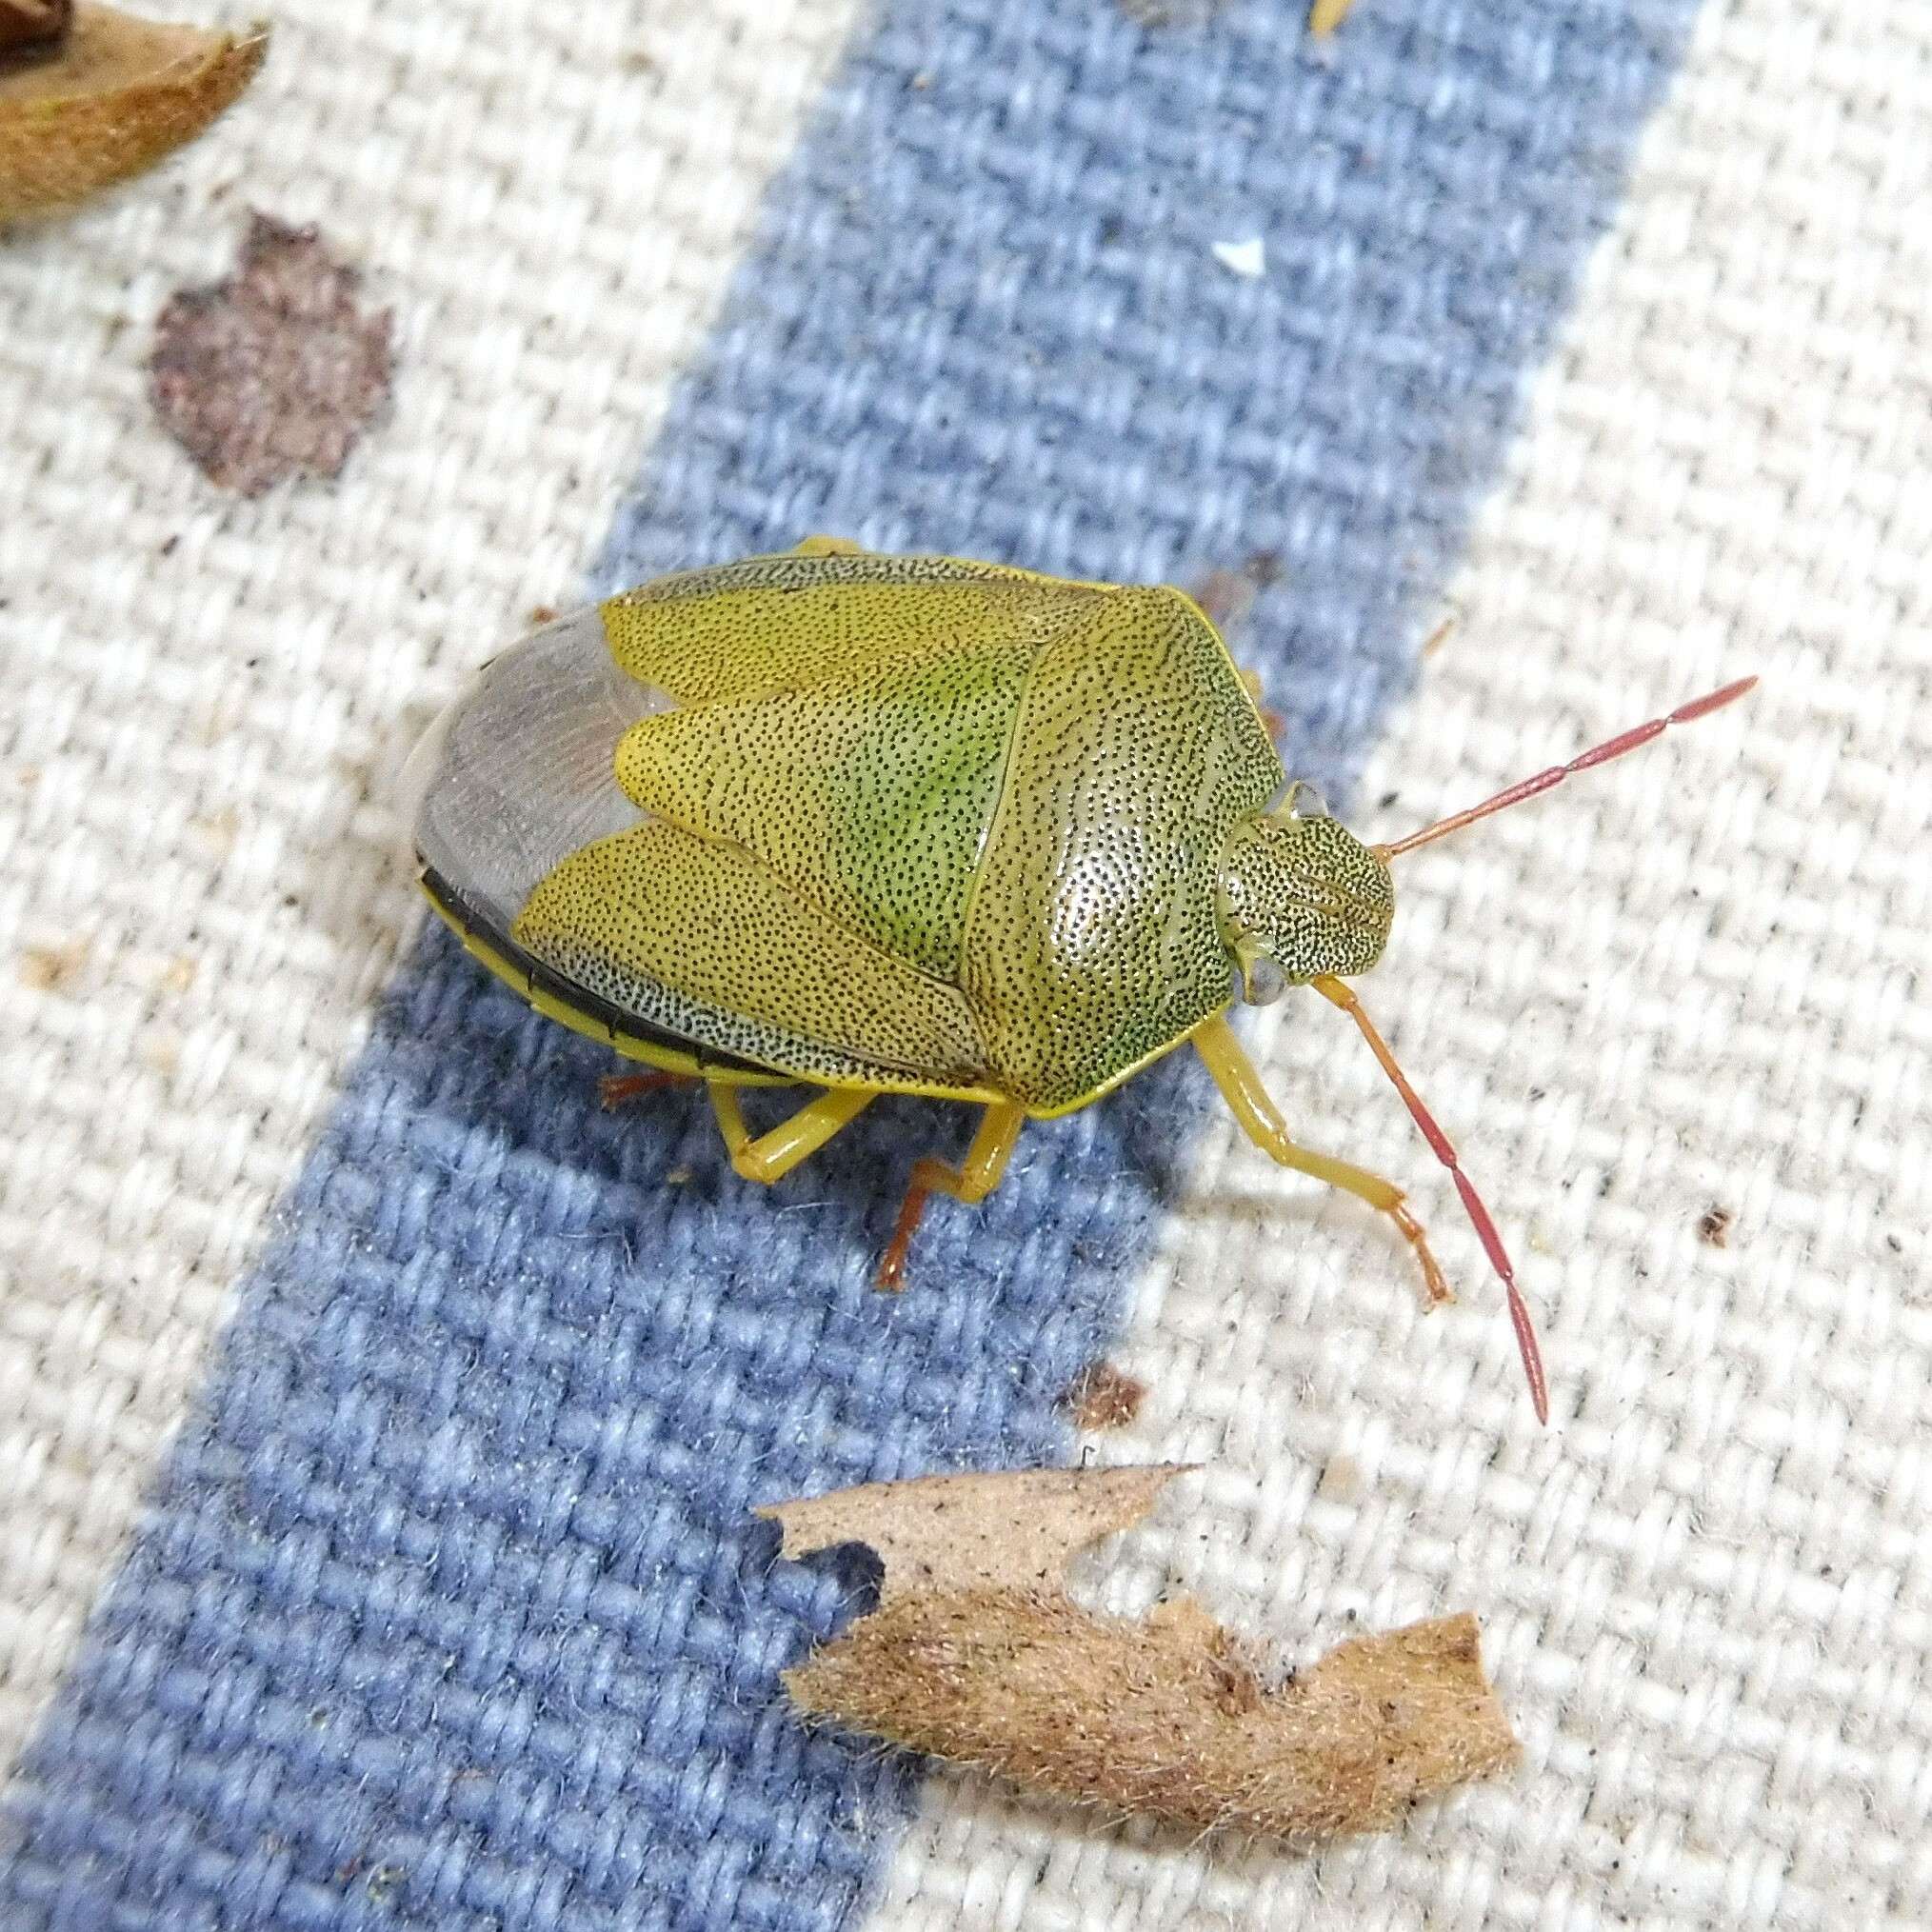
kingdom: Animalia
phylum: Arthropoda
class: Insecta
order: Hemiptera
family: Pentatomidae
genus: Piezodorus
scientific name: Piezodorus lituratus
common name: Stink bug
